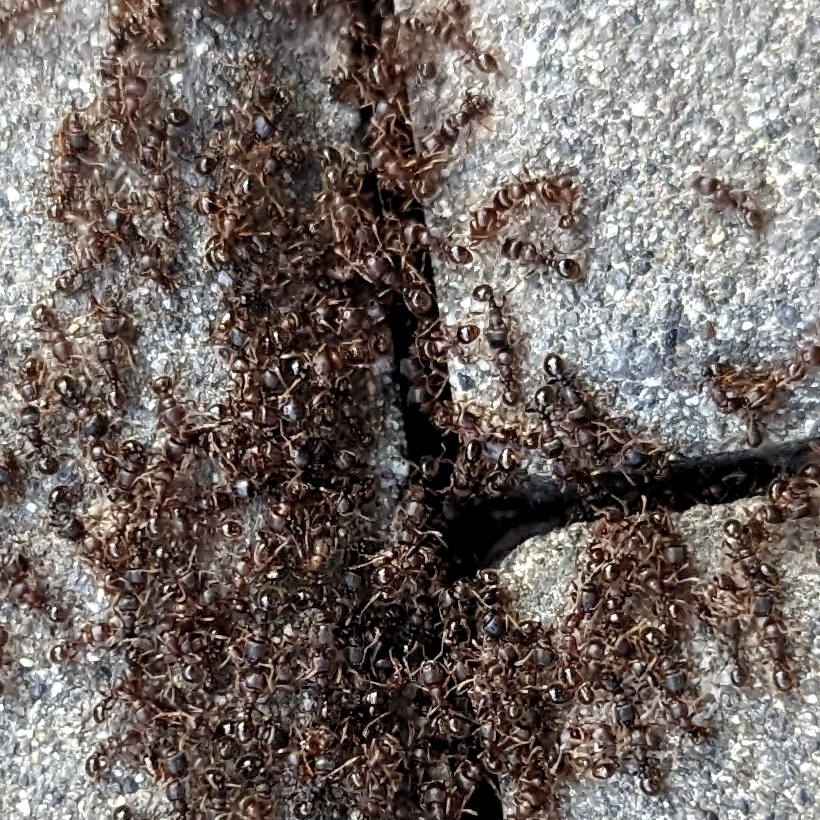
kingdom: Animalia
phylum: Arthropoda
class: Insecta
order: Hymenoptera
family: Formicidae
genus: Tetramorium
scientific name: Tetramorium immigrans
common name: Pavement ant
